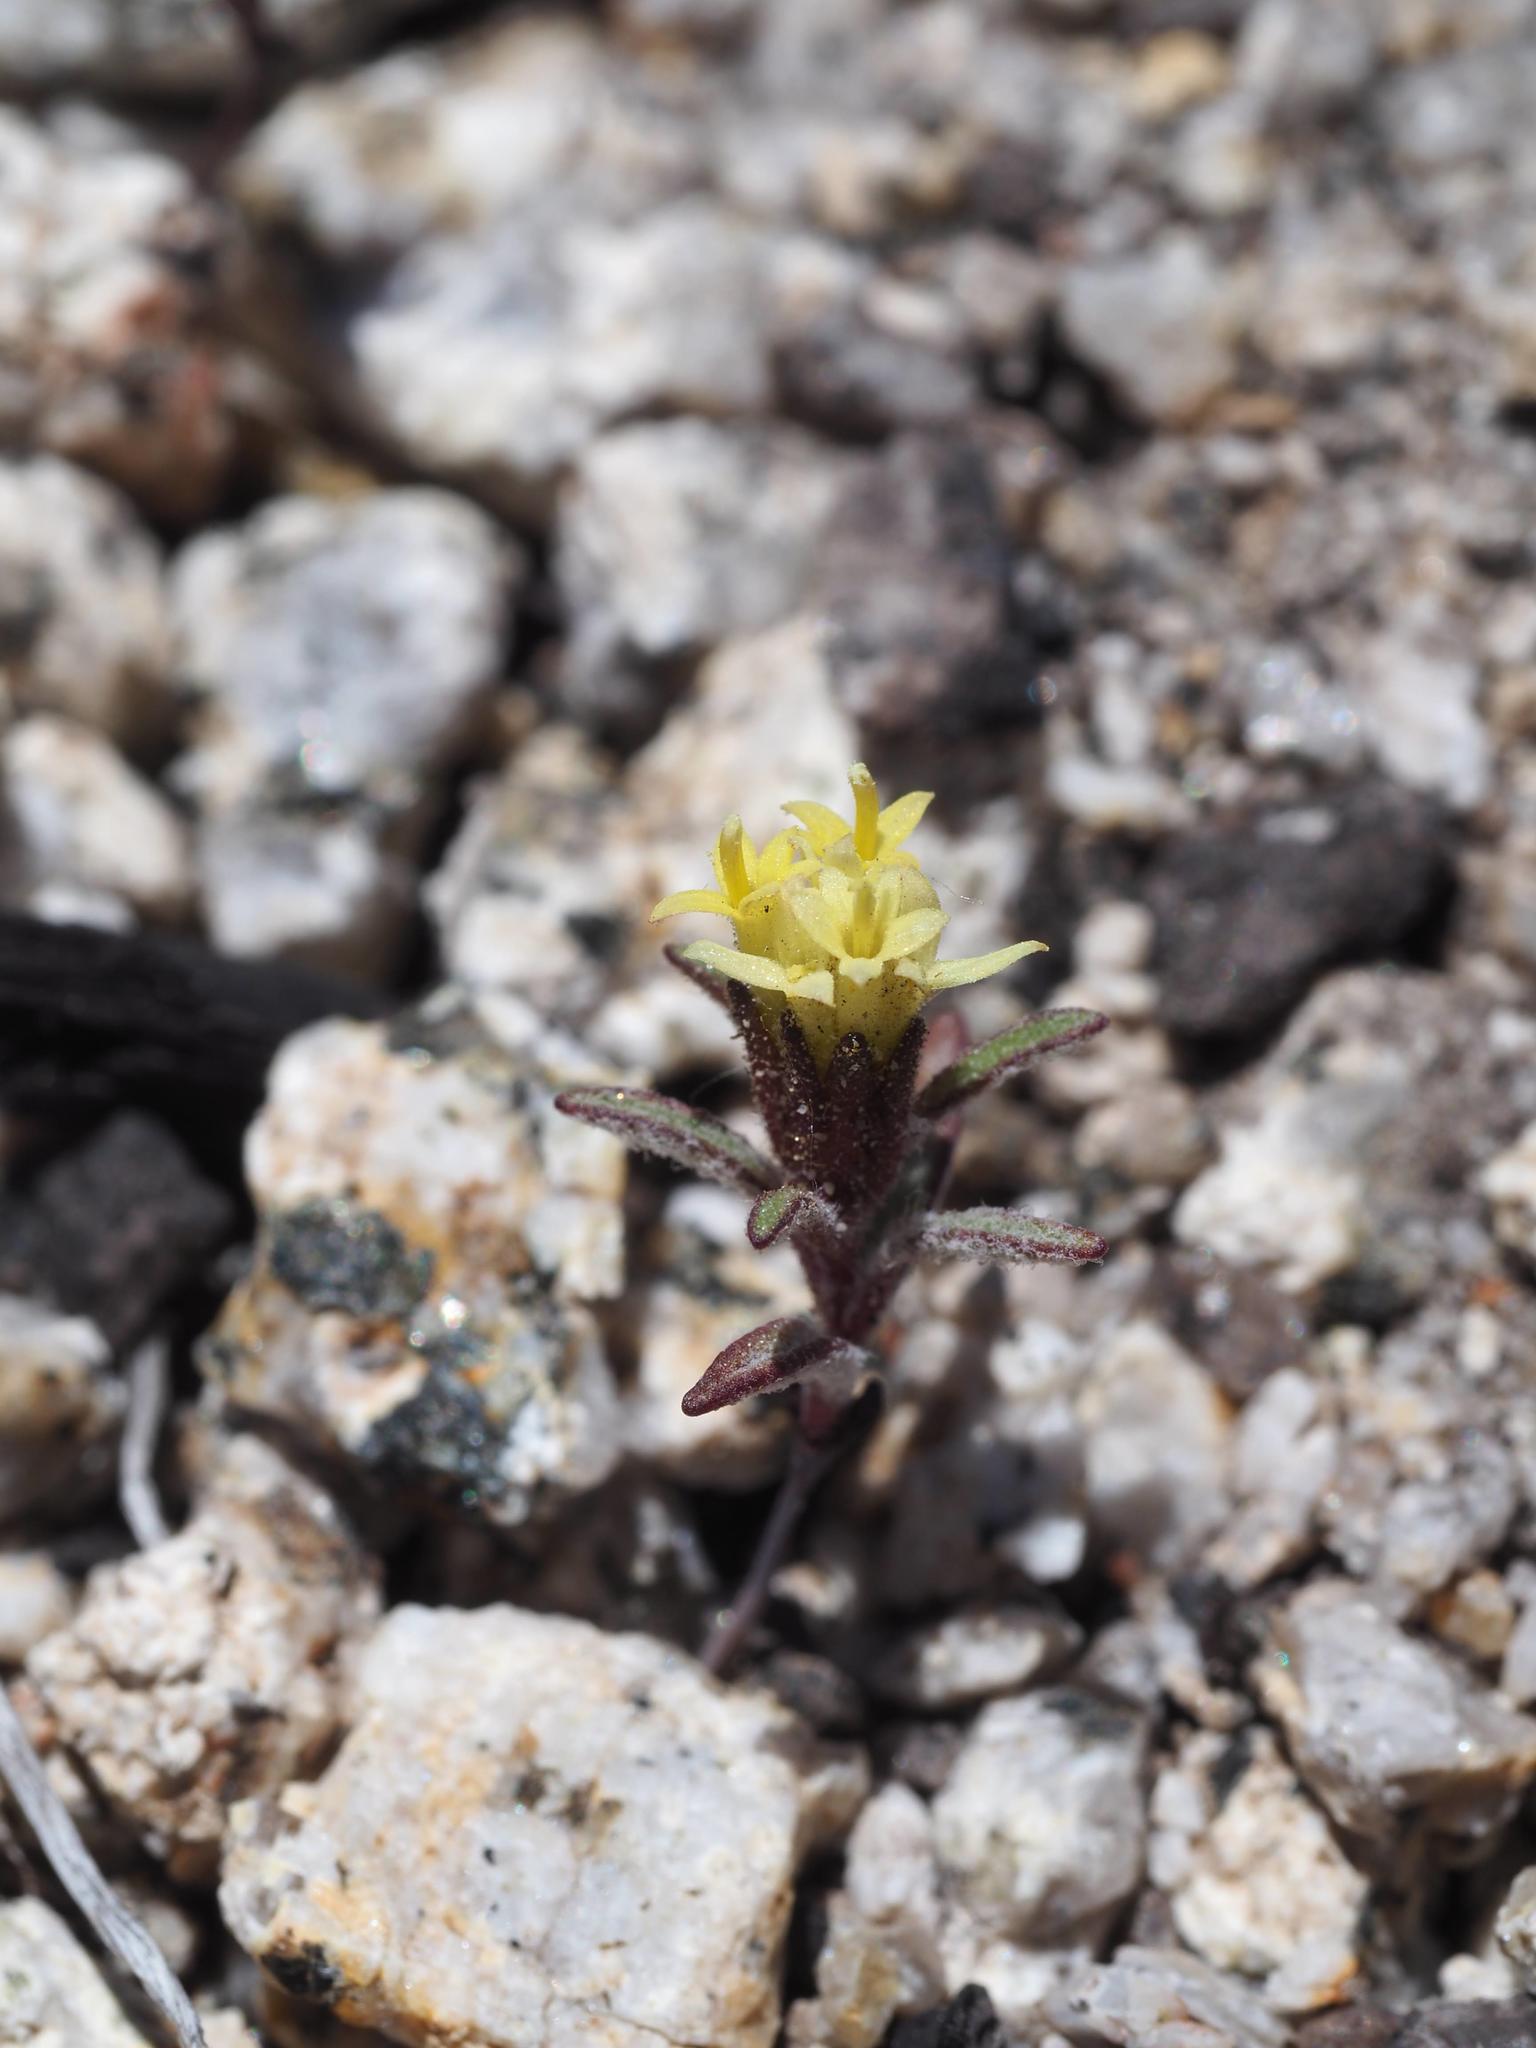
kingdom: Plantae
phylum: Tracheophyta
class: Magnoliopsida
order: Asterales
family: Asteraceae
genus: Orochaenactis
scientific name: Orochaenactis thysanocarpha
